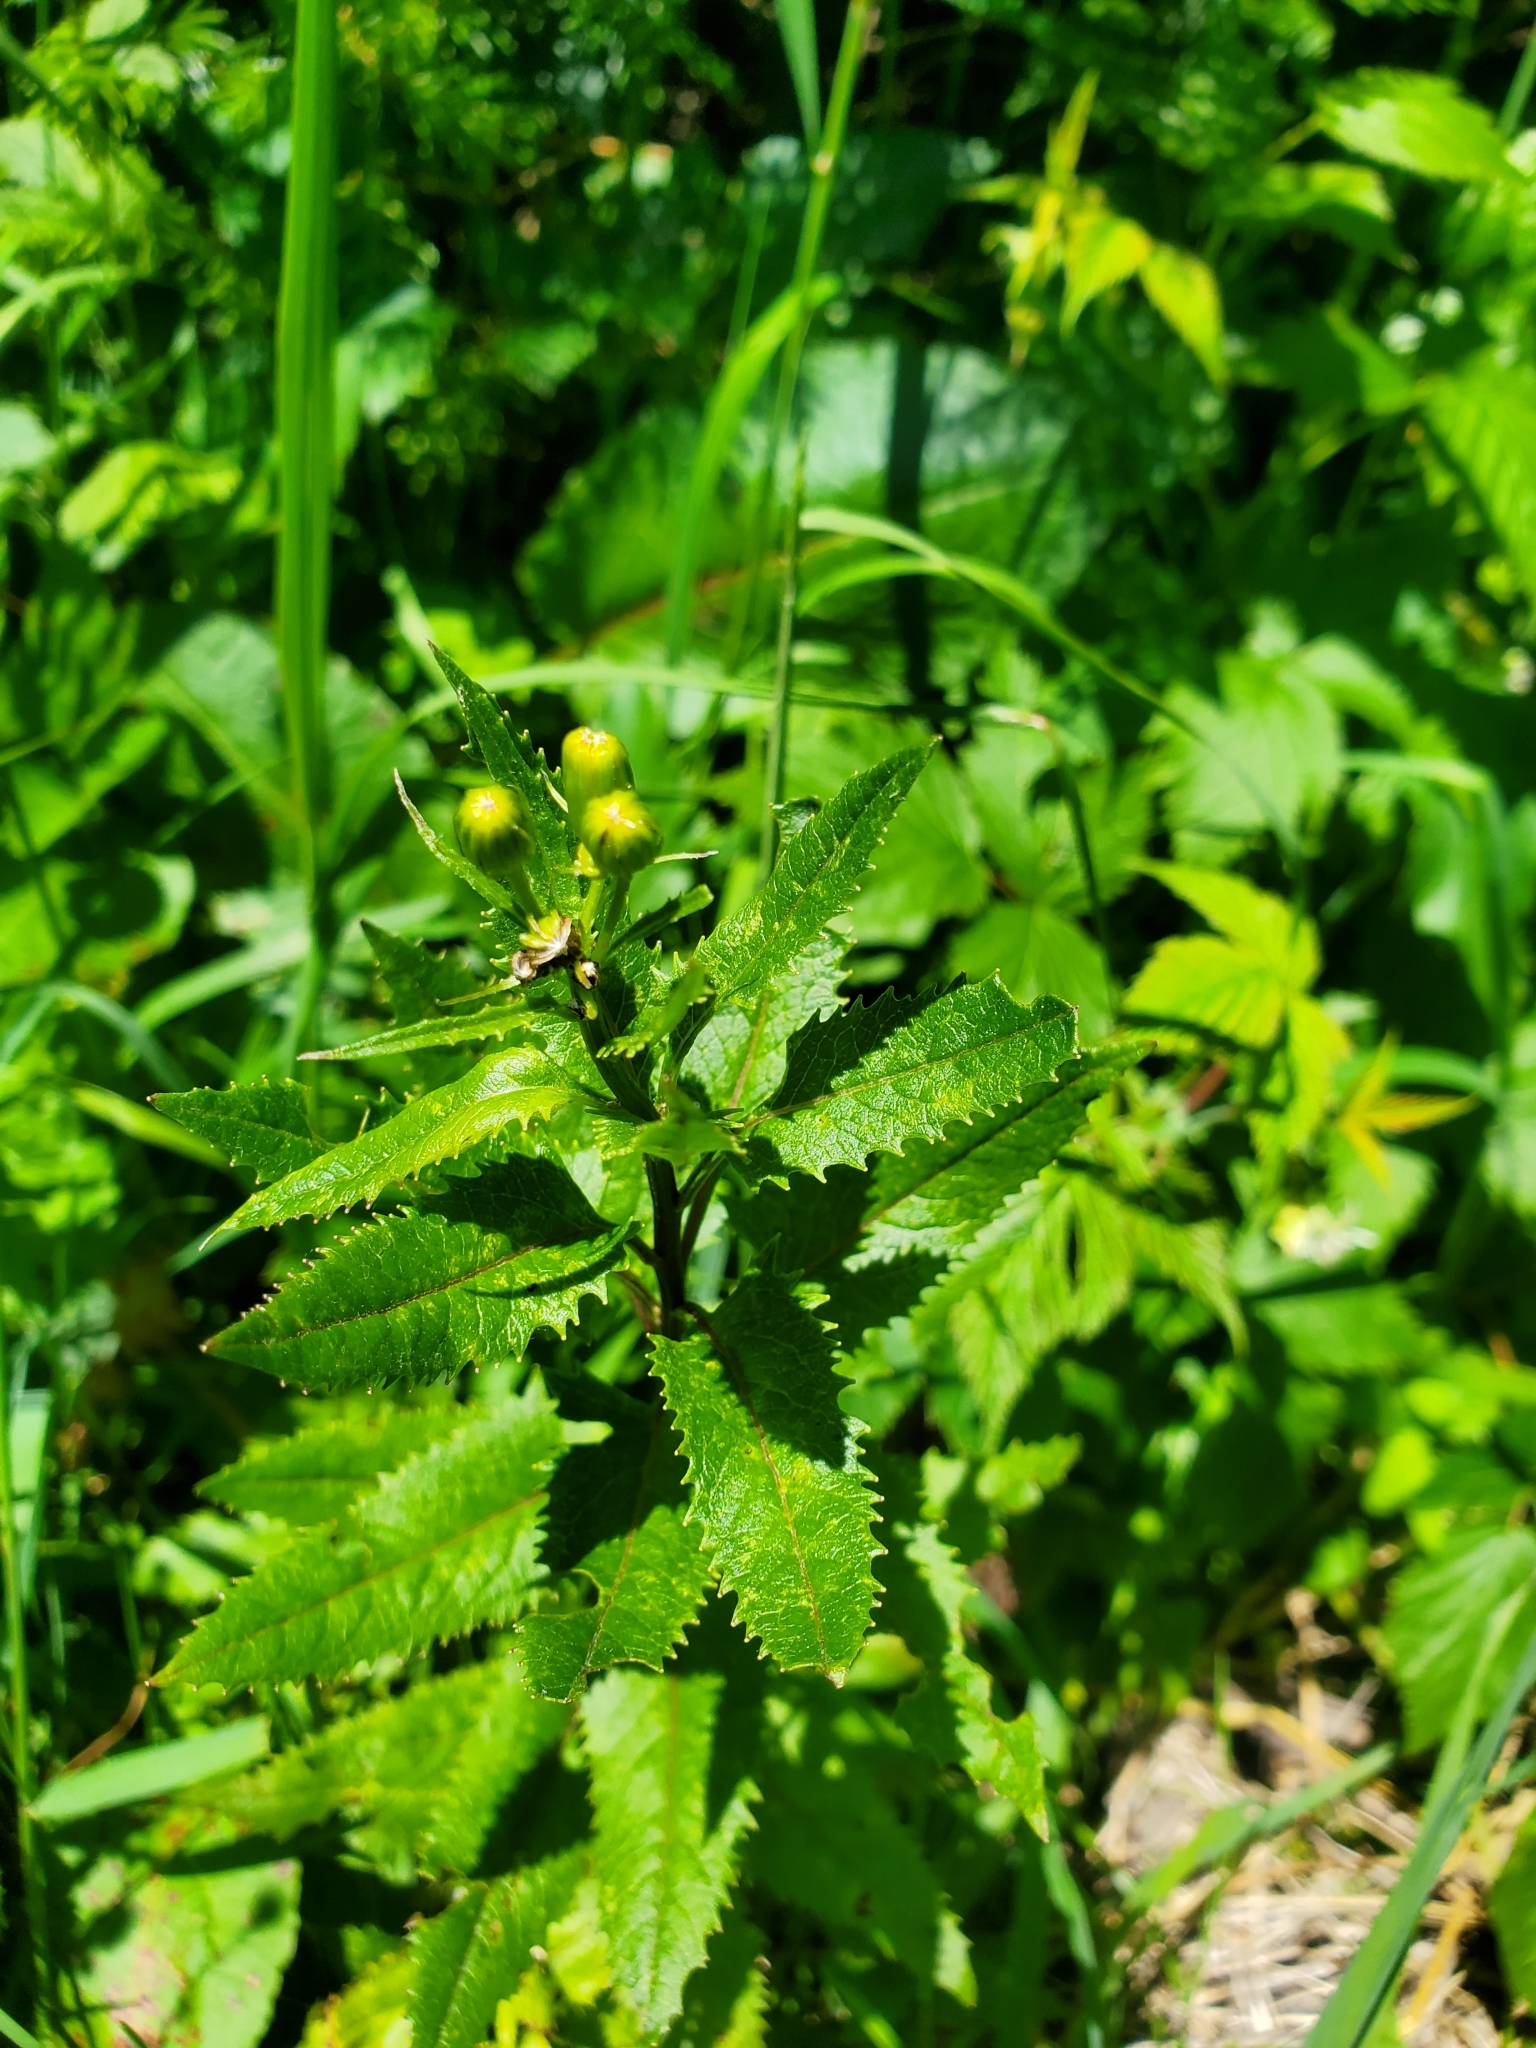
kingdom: Plantae
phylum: Tracheophyta
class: Magnoliopsida
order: Asterales
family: Asteraceae
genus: Senecio
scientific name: Senecio triangularis
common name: Arrowleaf butterweed
